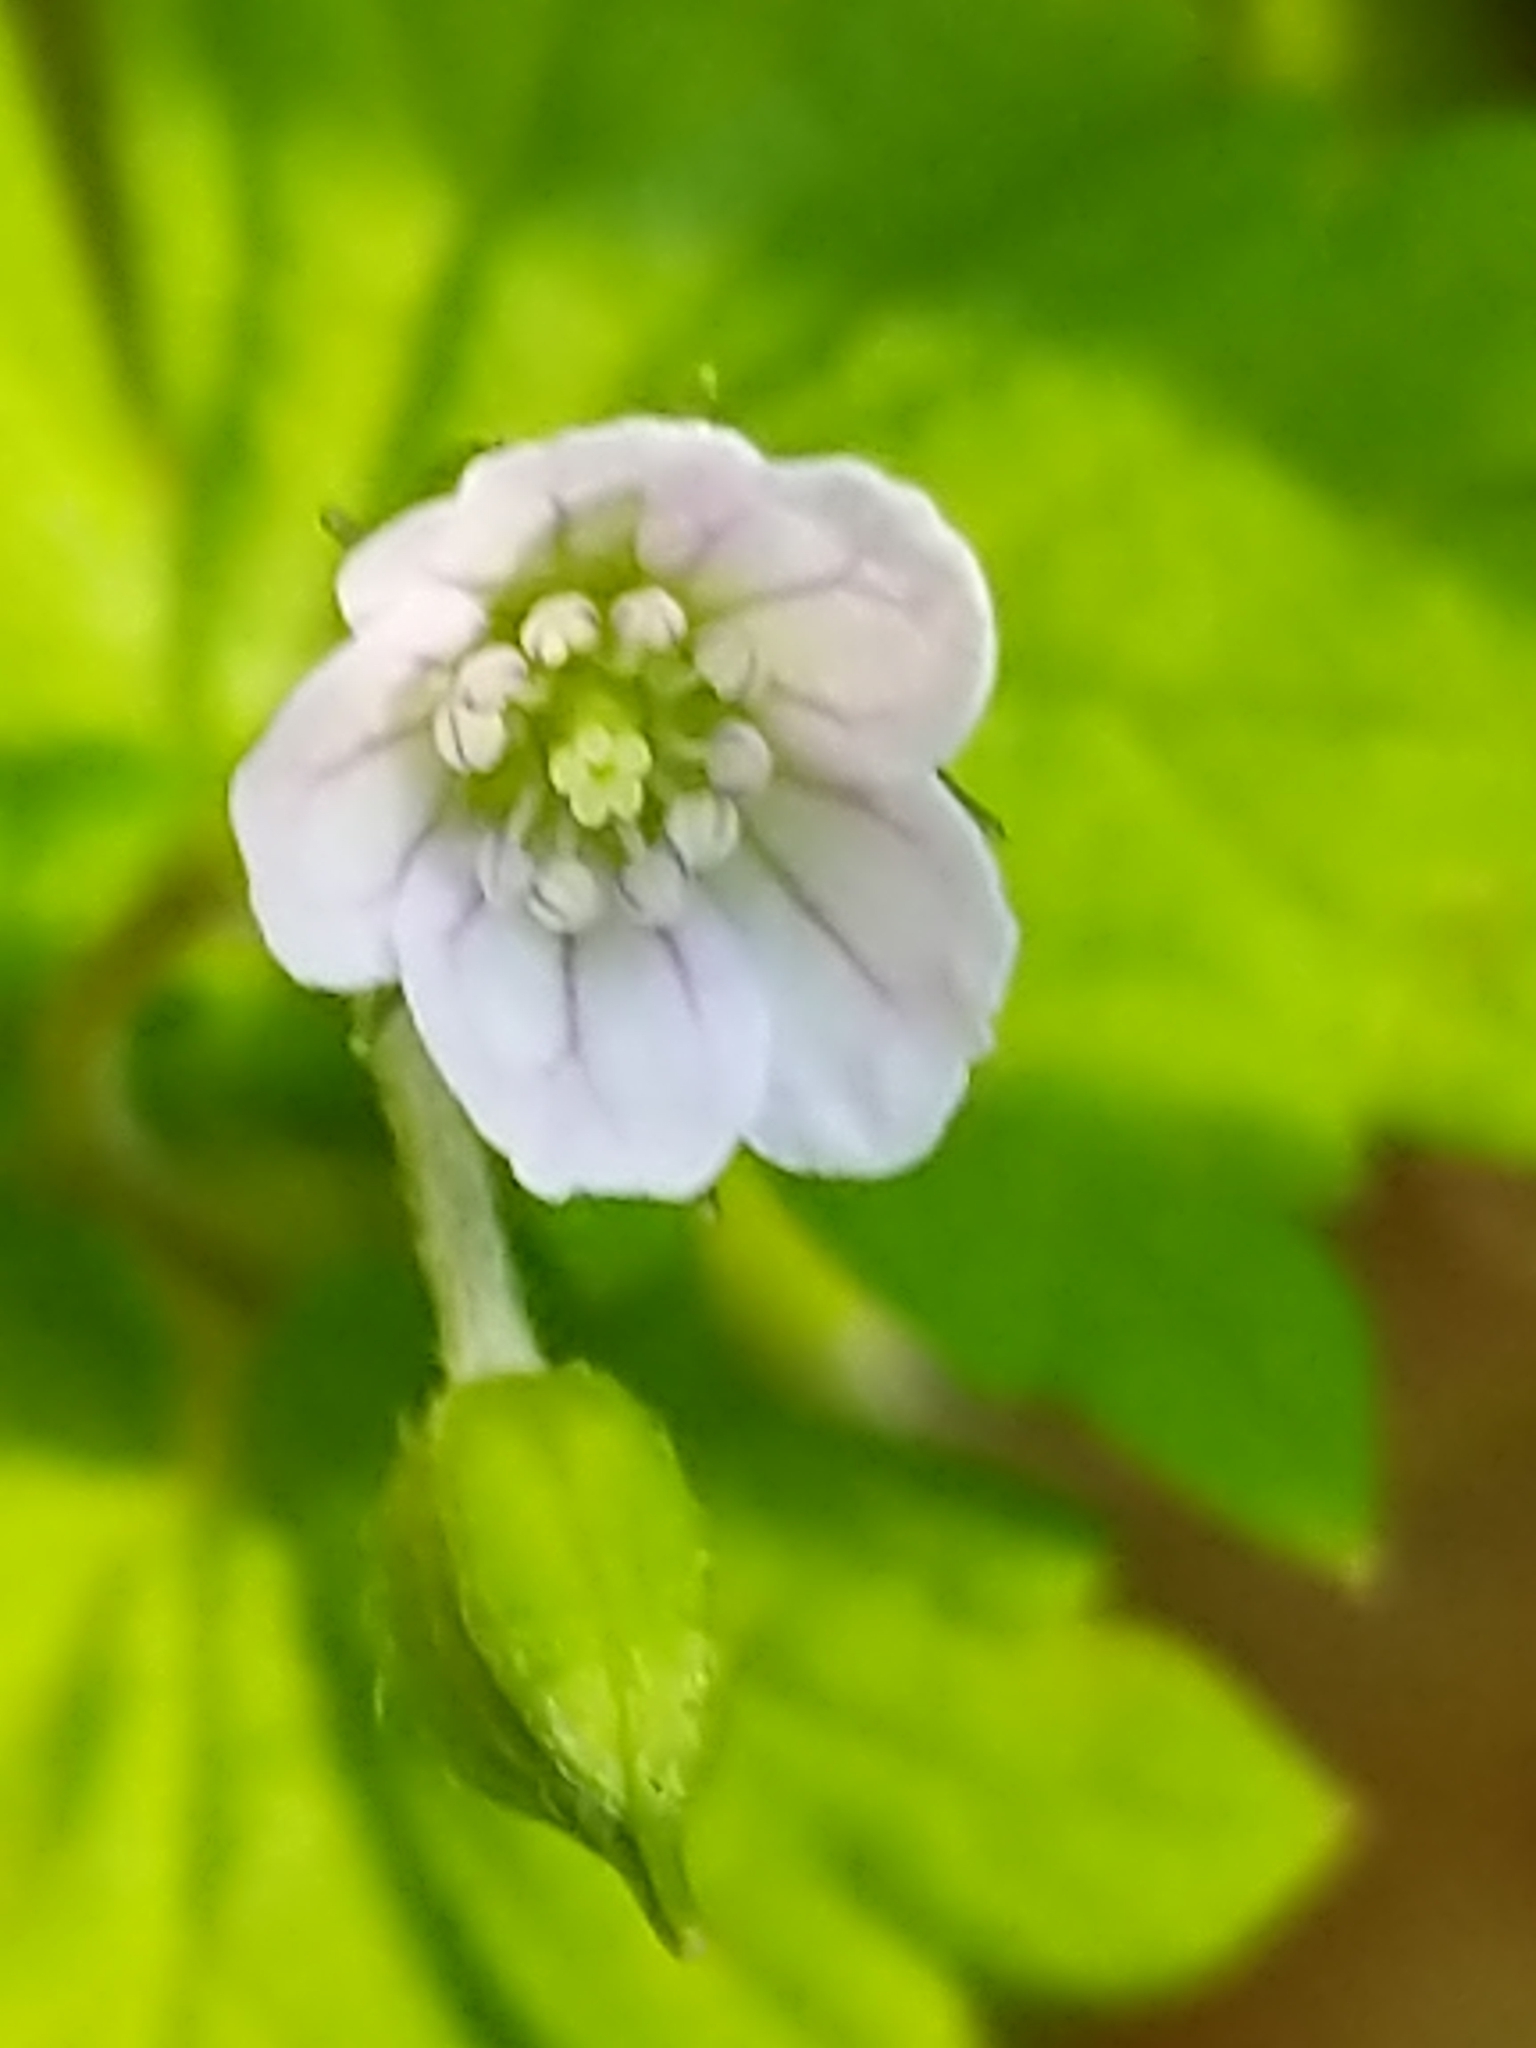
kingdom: Plantae
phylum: Tracheophyta
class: Magnoliopsida
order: Geraniales
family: Geraniaceae
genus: Geranium
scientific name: Geranium homeanum
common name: Australasian geranium
